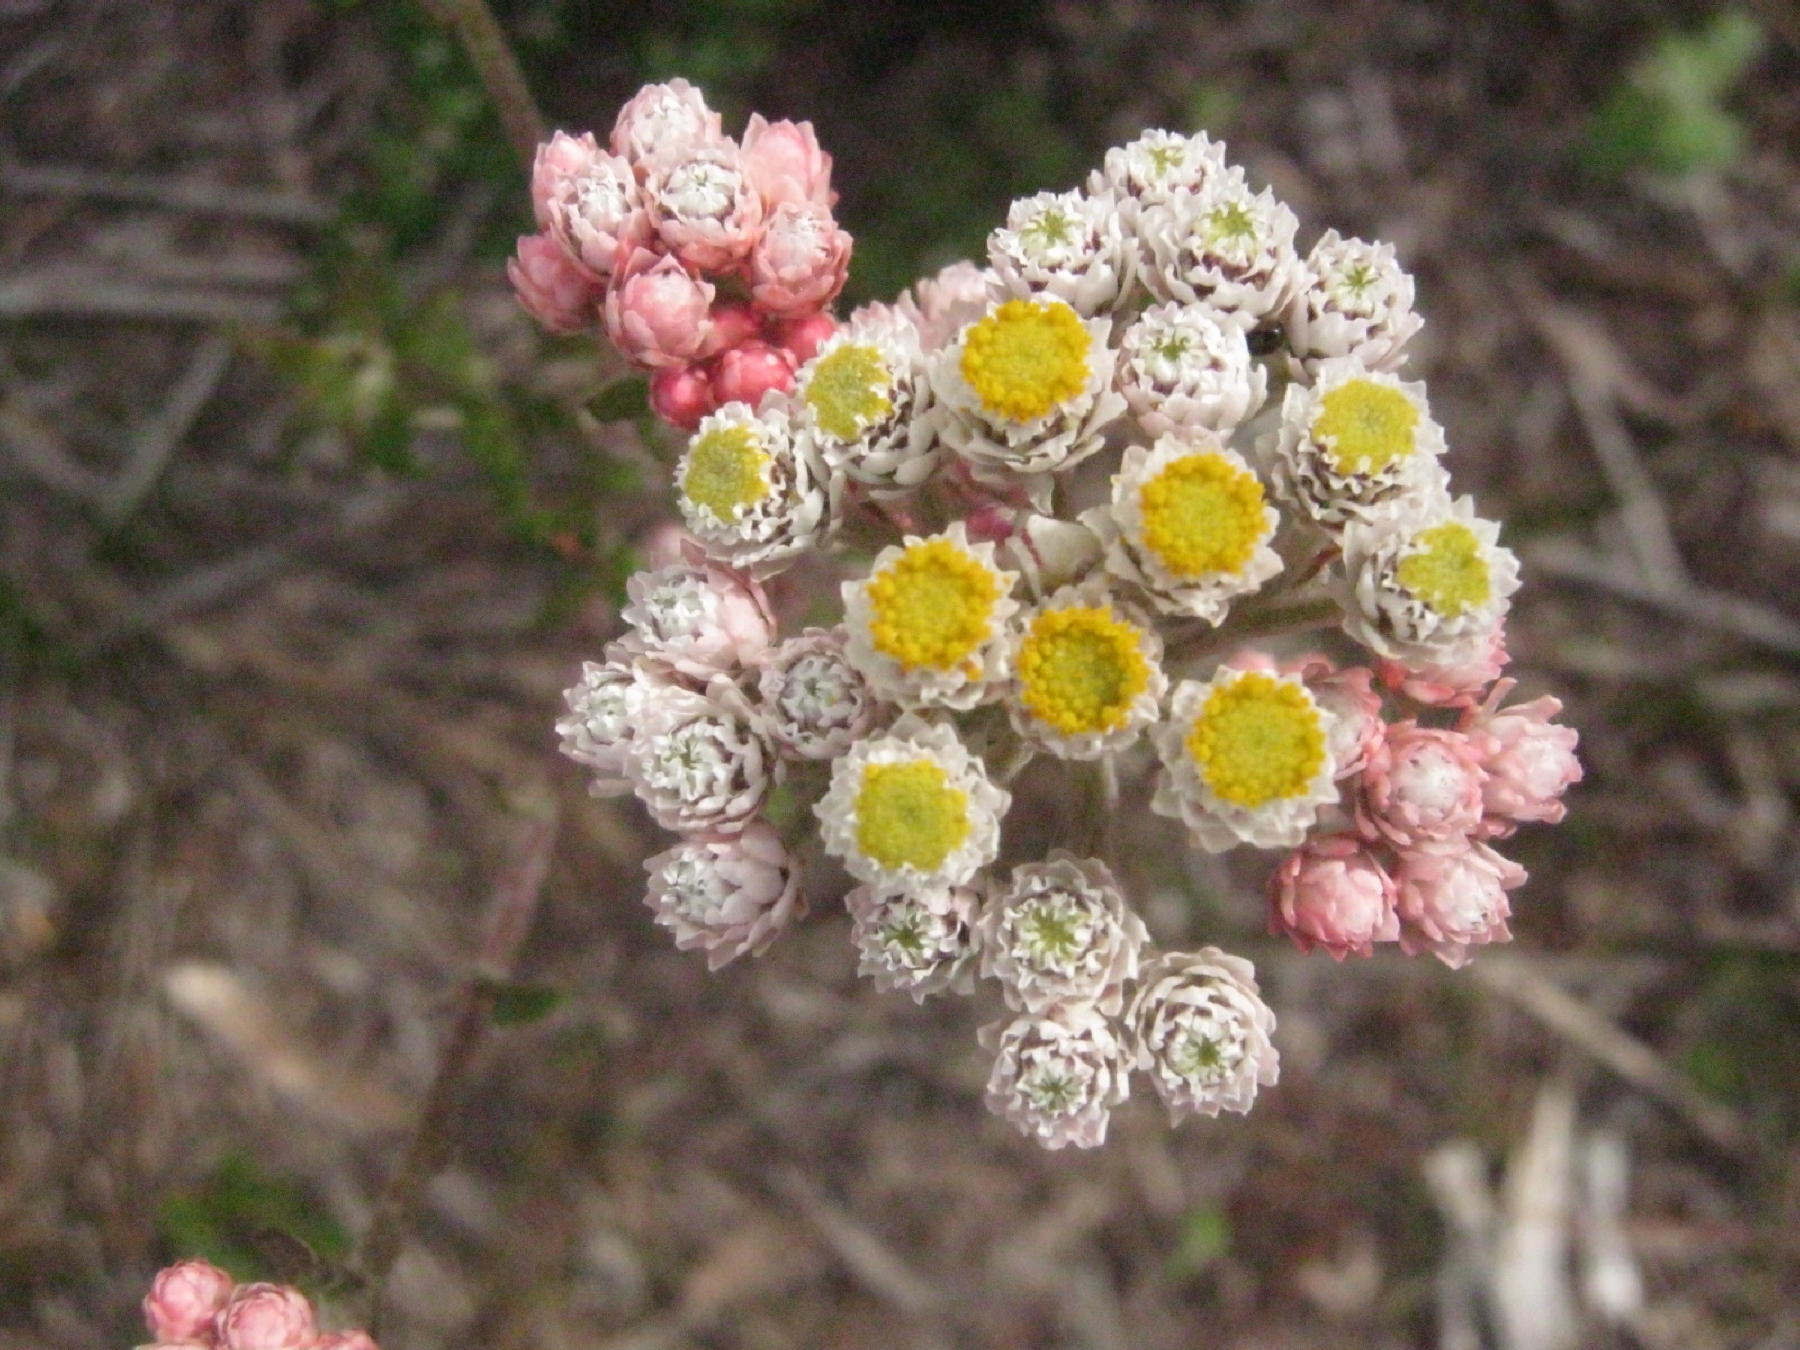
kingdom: Plantae
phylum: Tracheophyta
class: Magnoliopsida
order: Asterales
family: Asteraceae
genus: Helichrysum
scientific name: Helichrysum felinum
